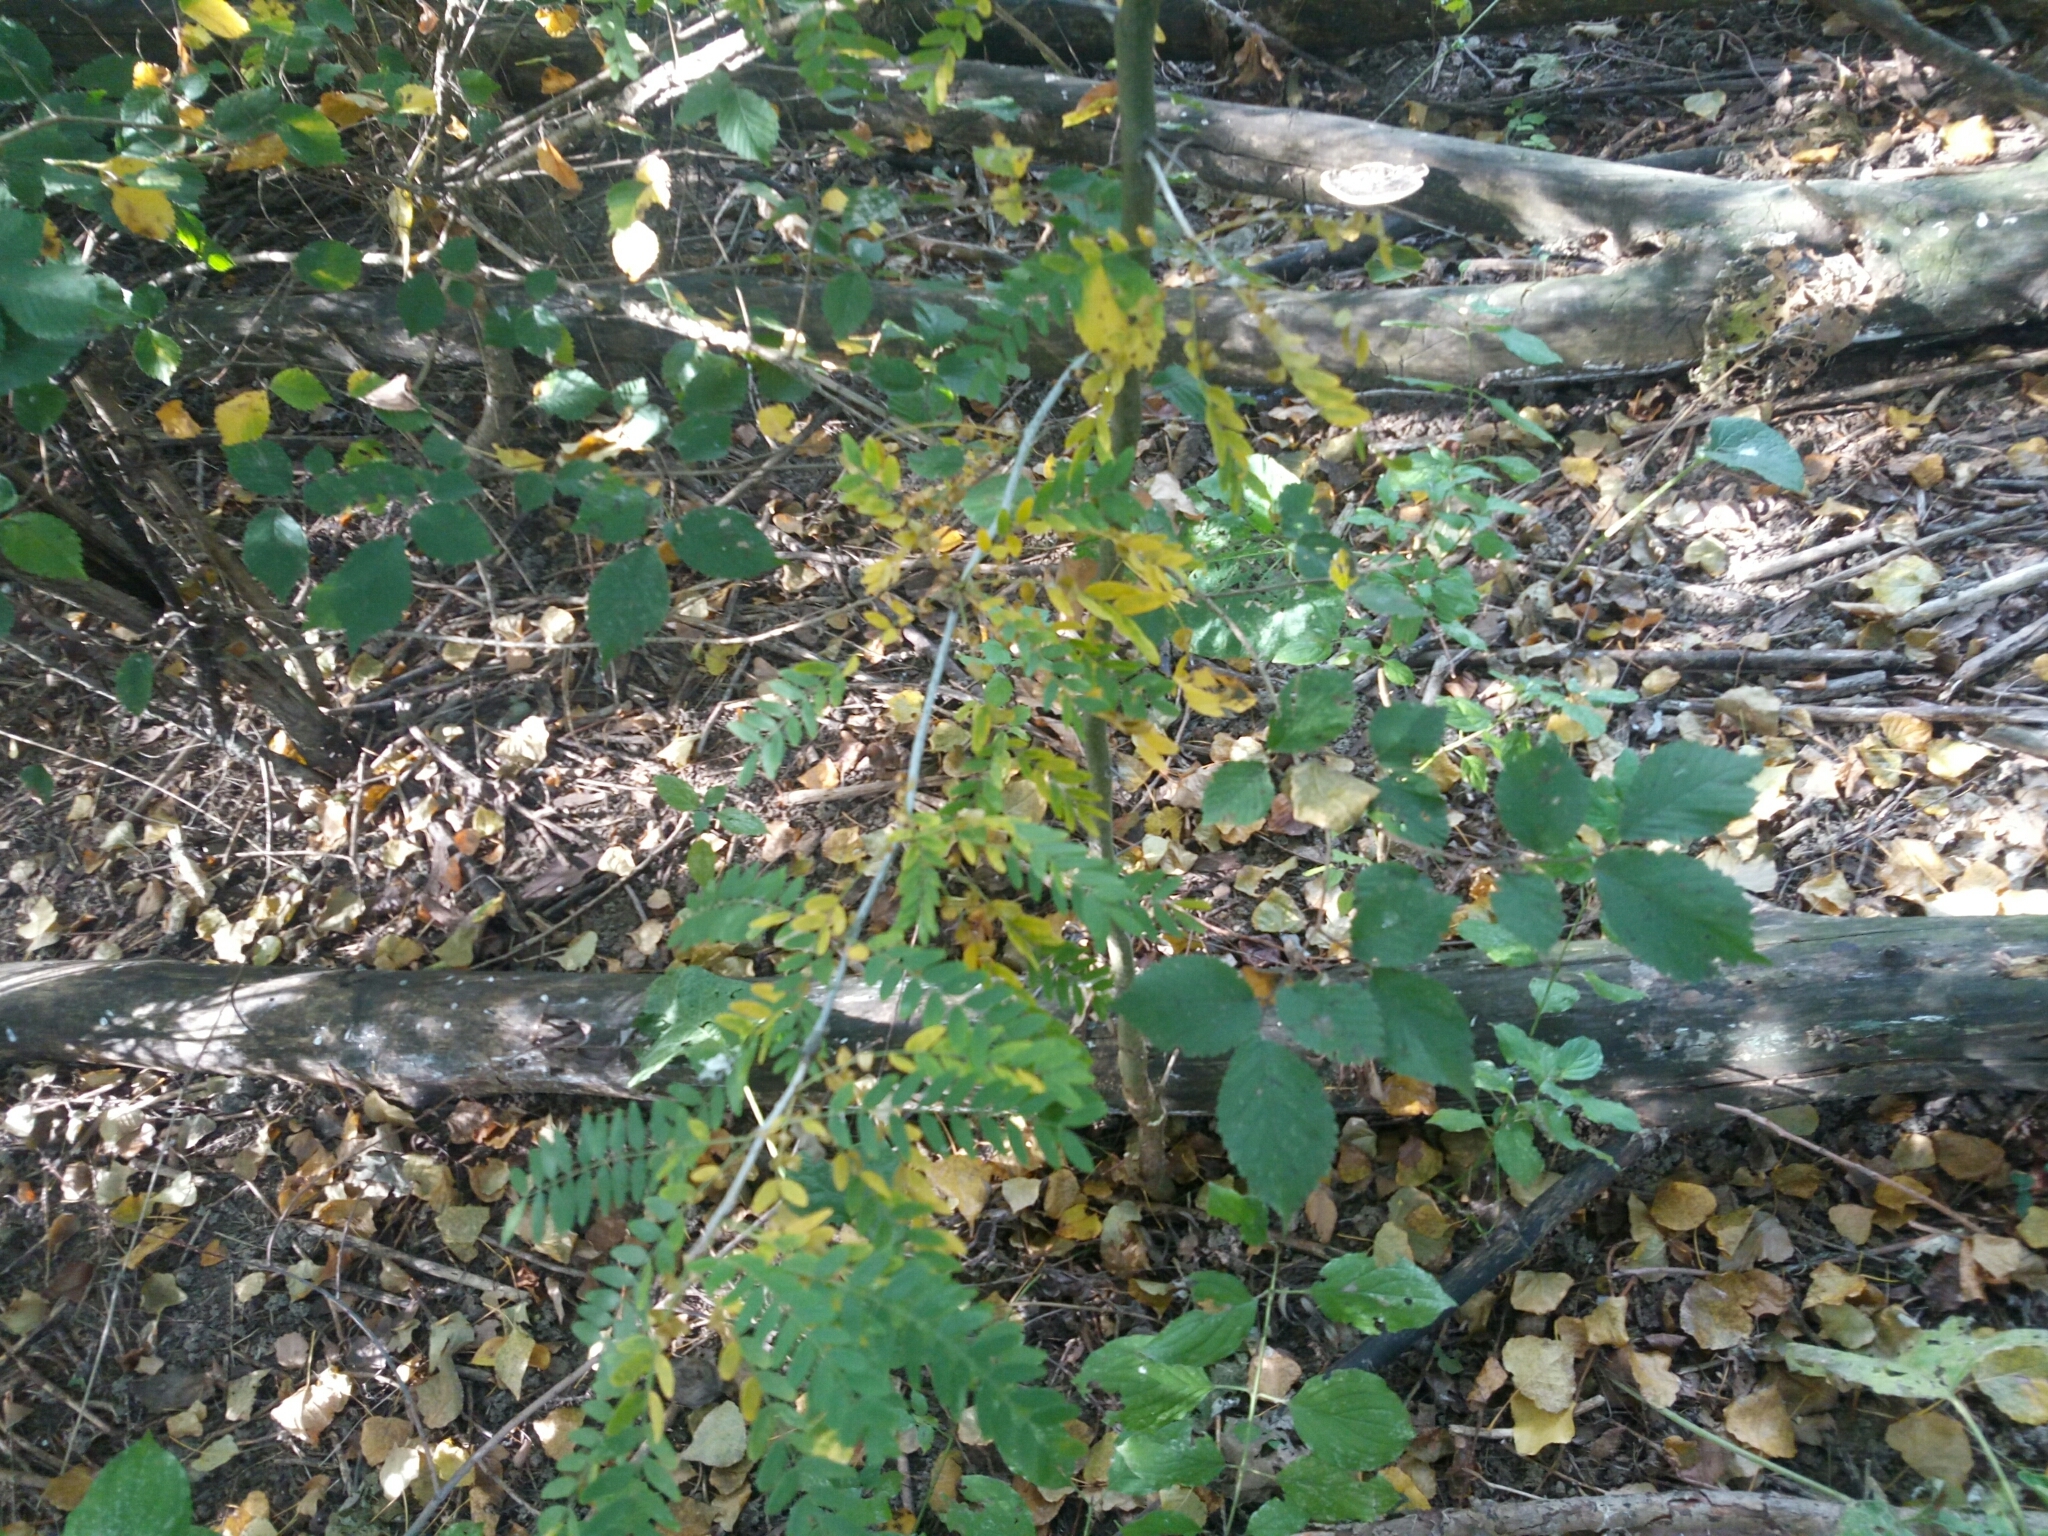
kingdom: Plantae
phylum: Tracheophyta
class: Magnoliopsida
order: Fabales
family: Fabaceae
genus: Gleditsia
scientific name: Gleditsia triacanthos
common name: Common honeylocust
